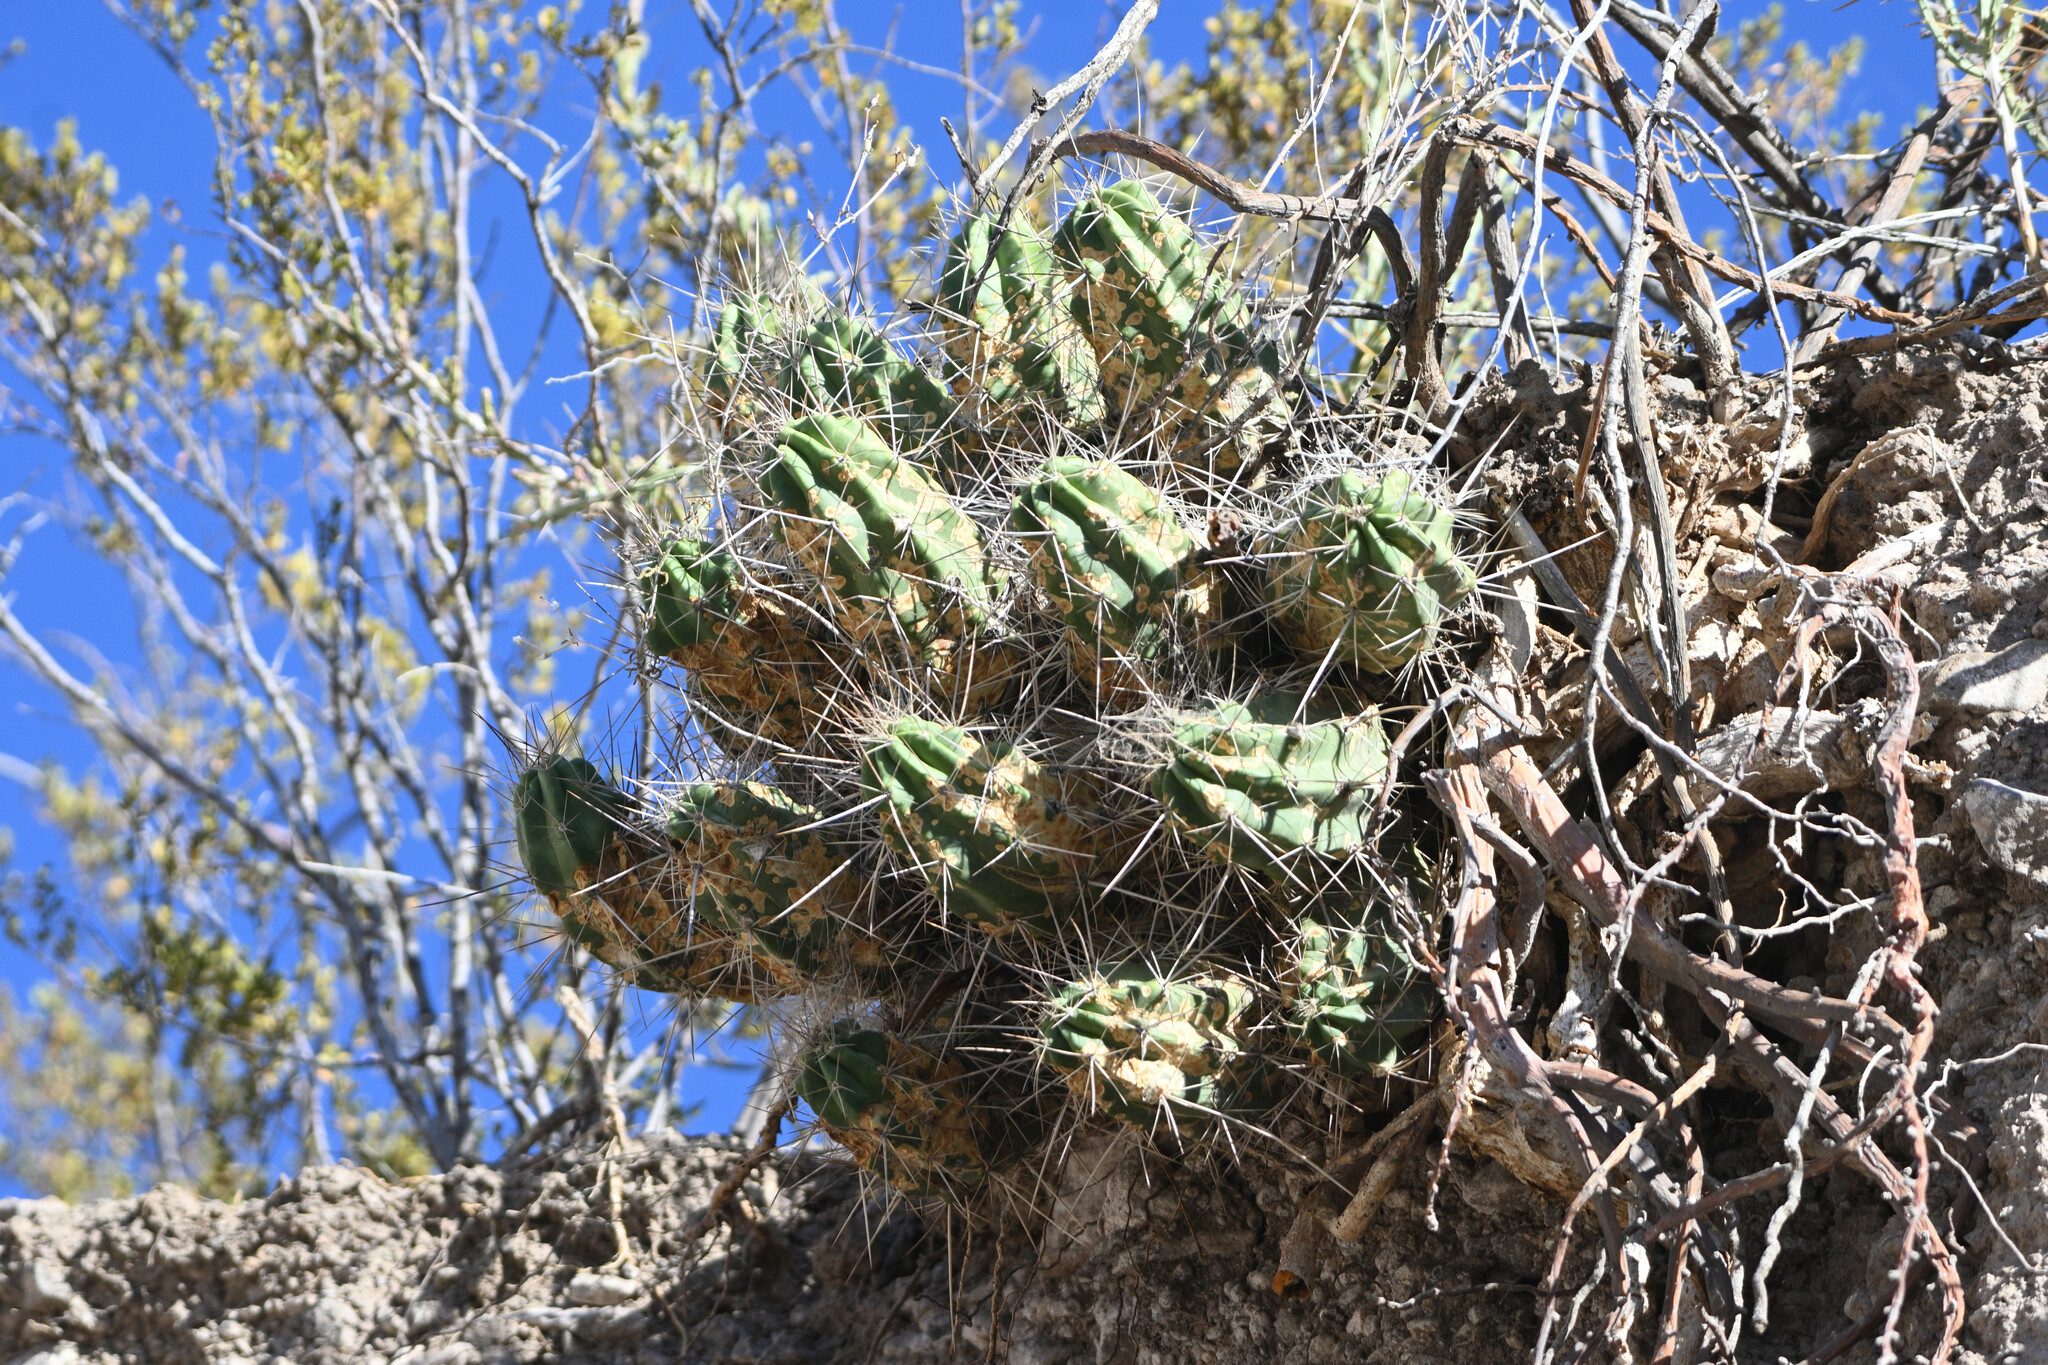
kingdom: Plantae
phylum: Tracheophyta
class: Magnoliopsida
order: Caryophyllales
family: Cactaceae
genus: Echinocereus
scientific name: Echinocereus enneacanthus
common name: Pitaya
